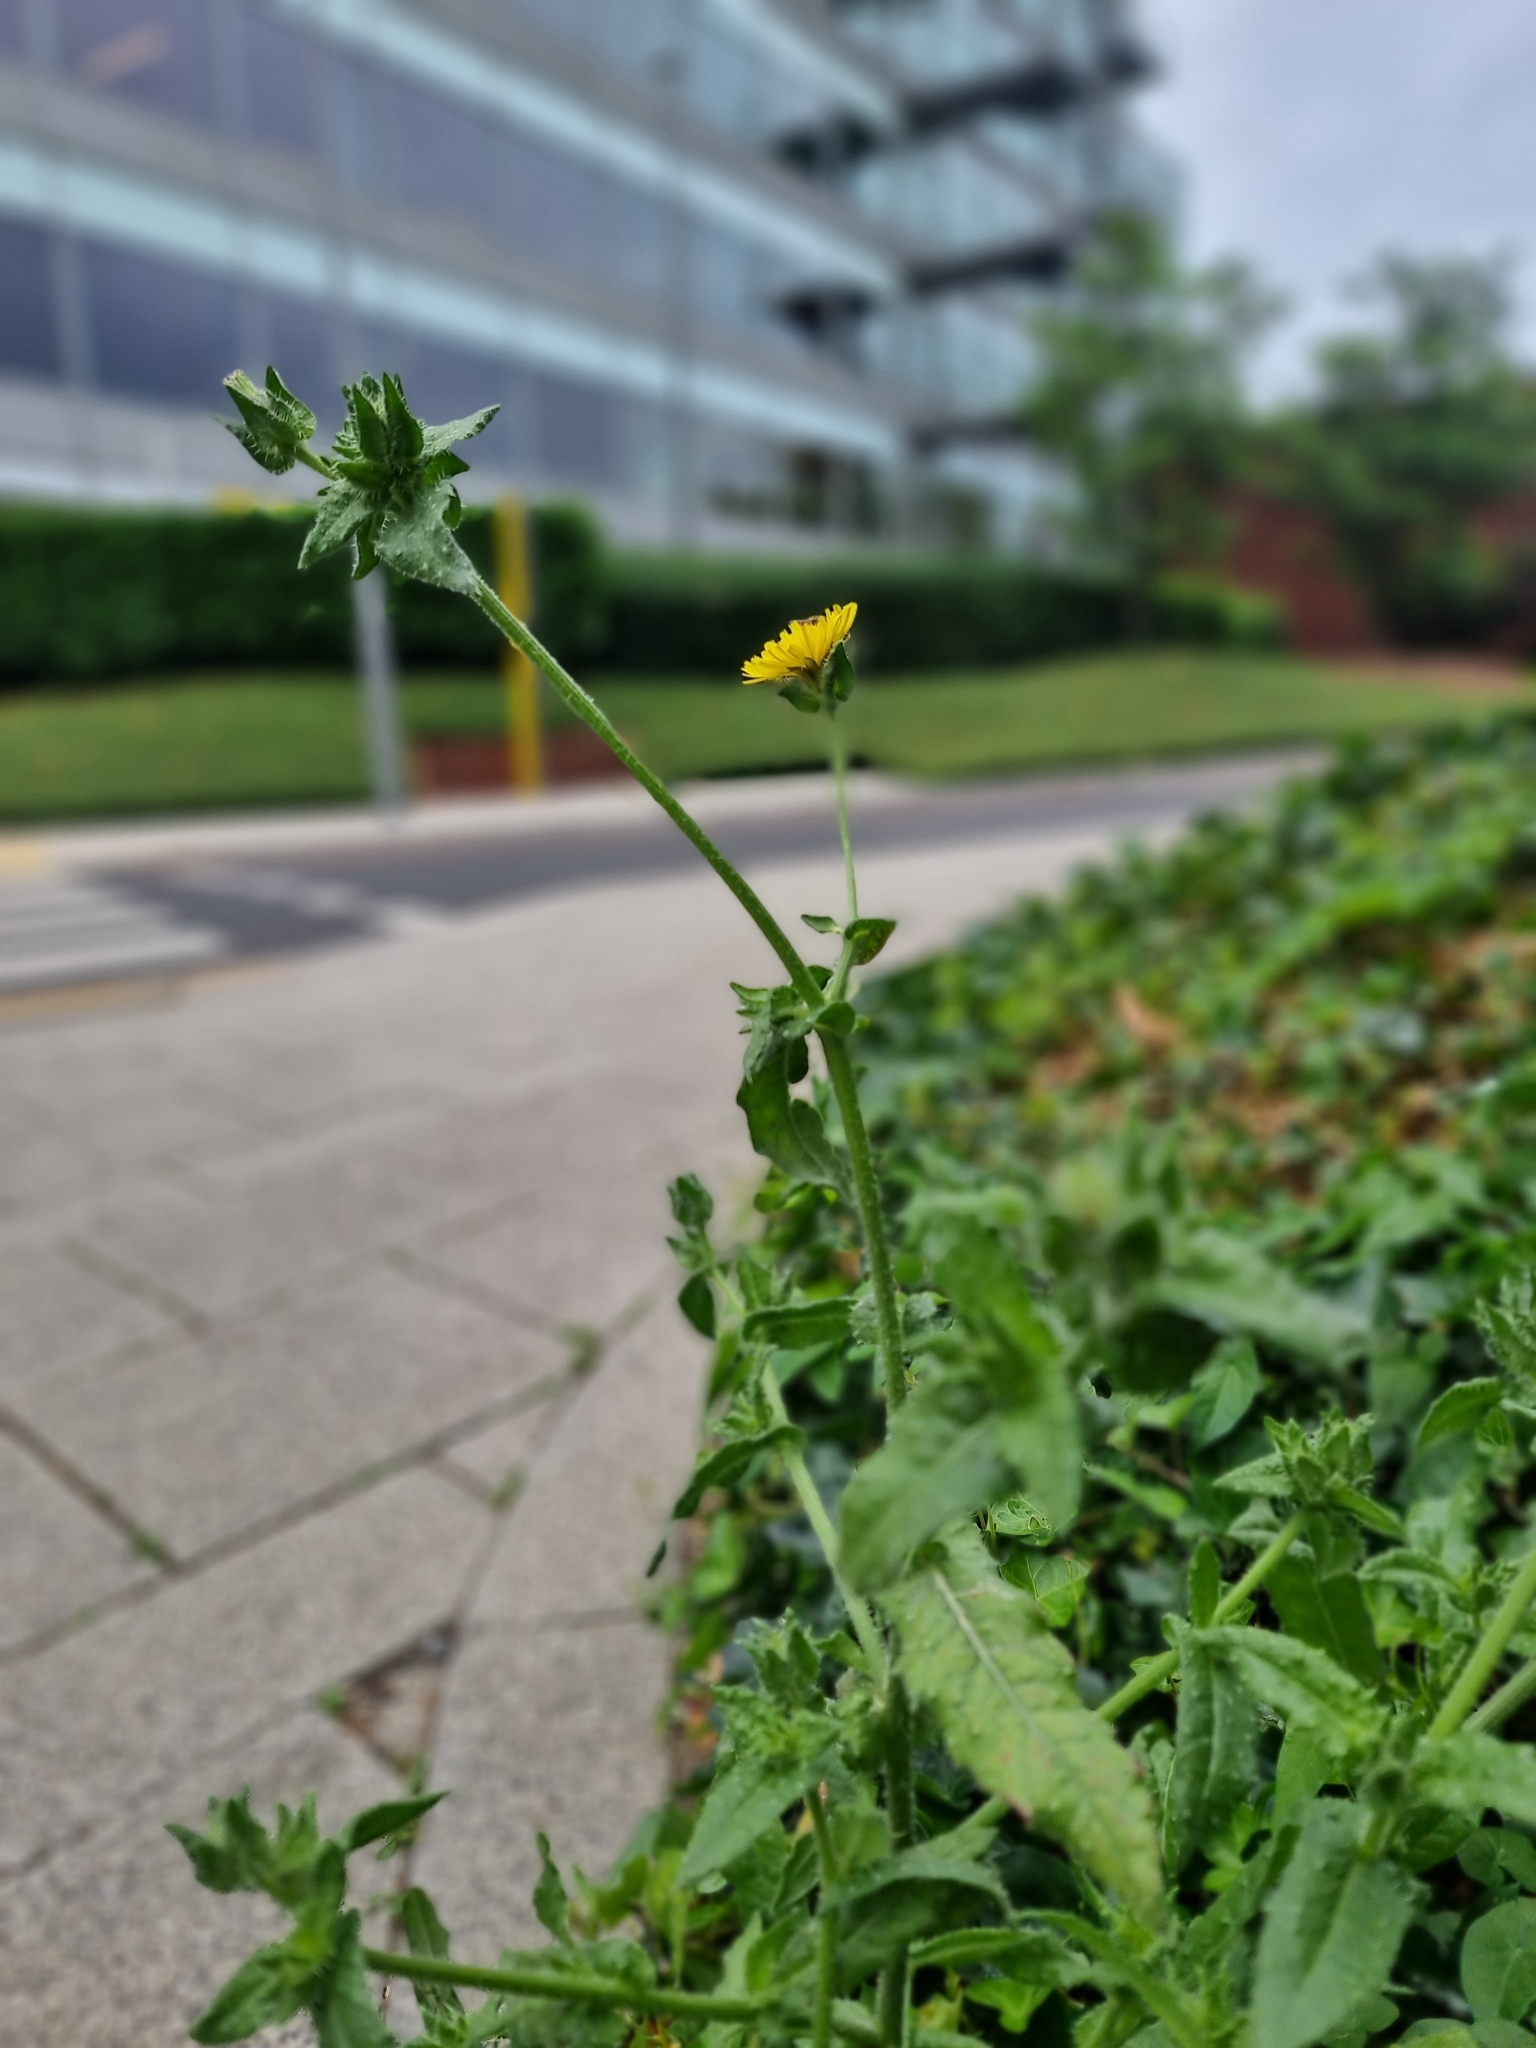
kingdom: Plantae
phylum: Tracheophyta
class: Magnoliopsida
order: Asterales
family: Asteraceae
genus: Helminthotheca
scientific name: Helminthotheca echioides
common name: Ox-tongue
